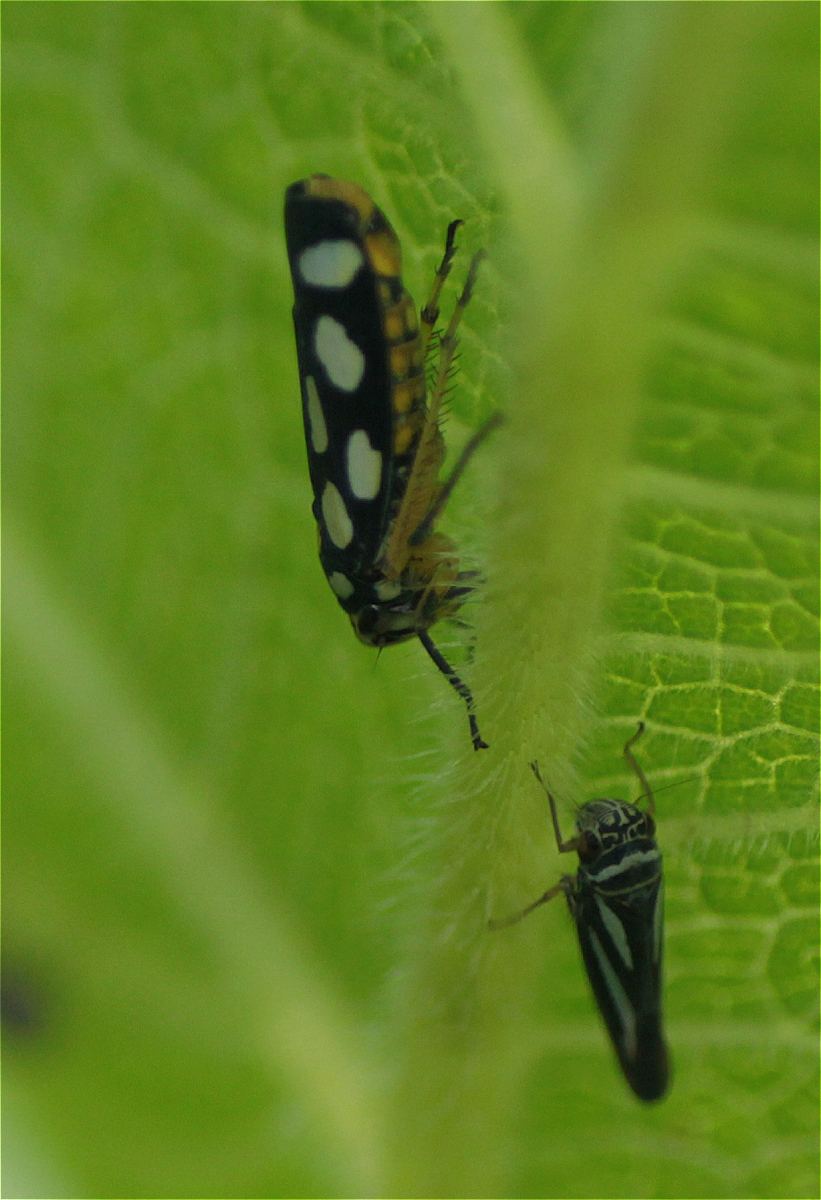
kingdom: Animalia
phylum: Arthropoda
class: Insecta
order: Hemiptera
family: Cicadellidae
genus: Stehlikiana
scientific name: Stehlikiana crassa
